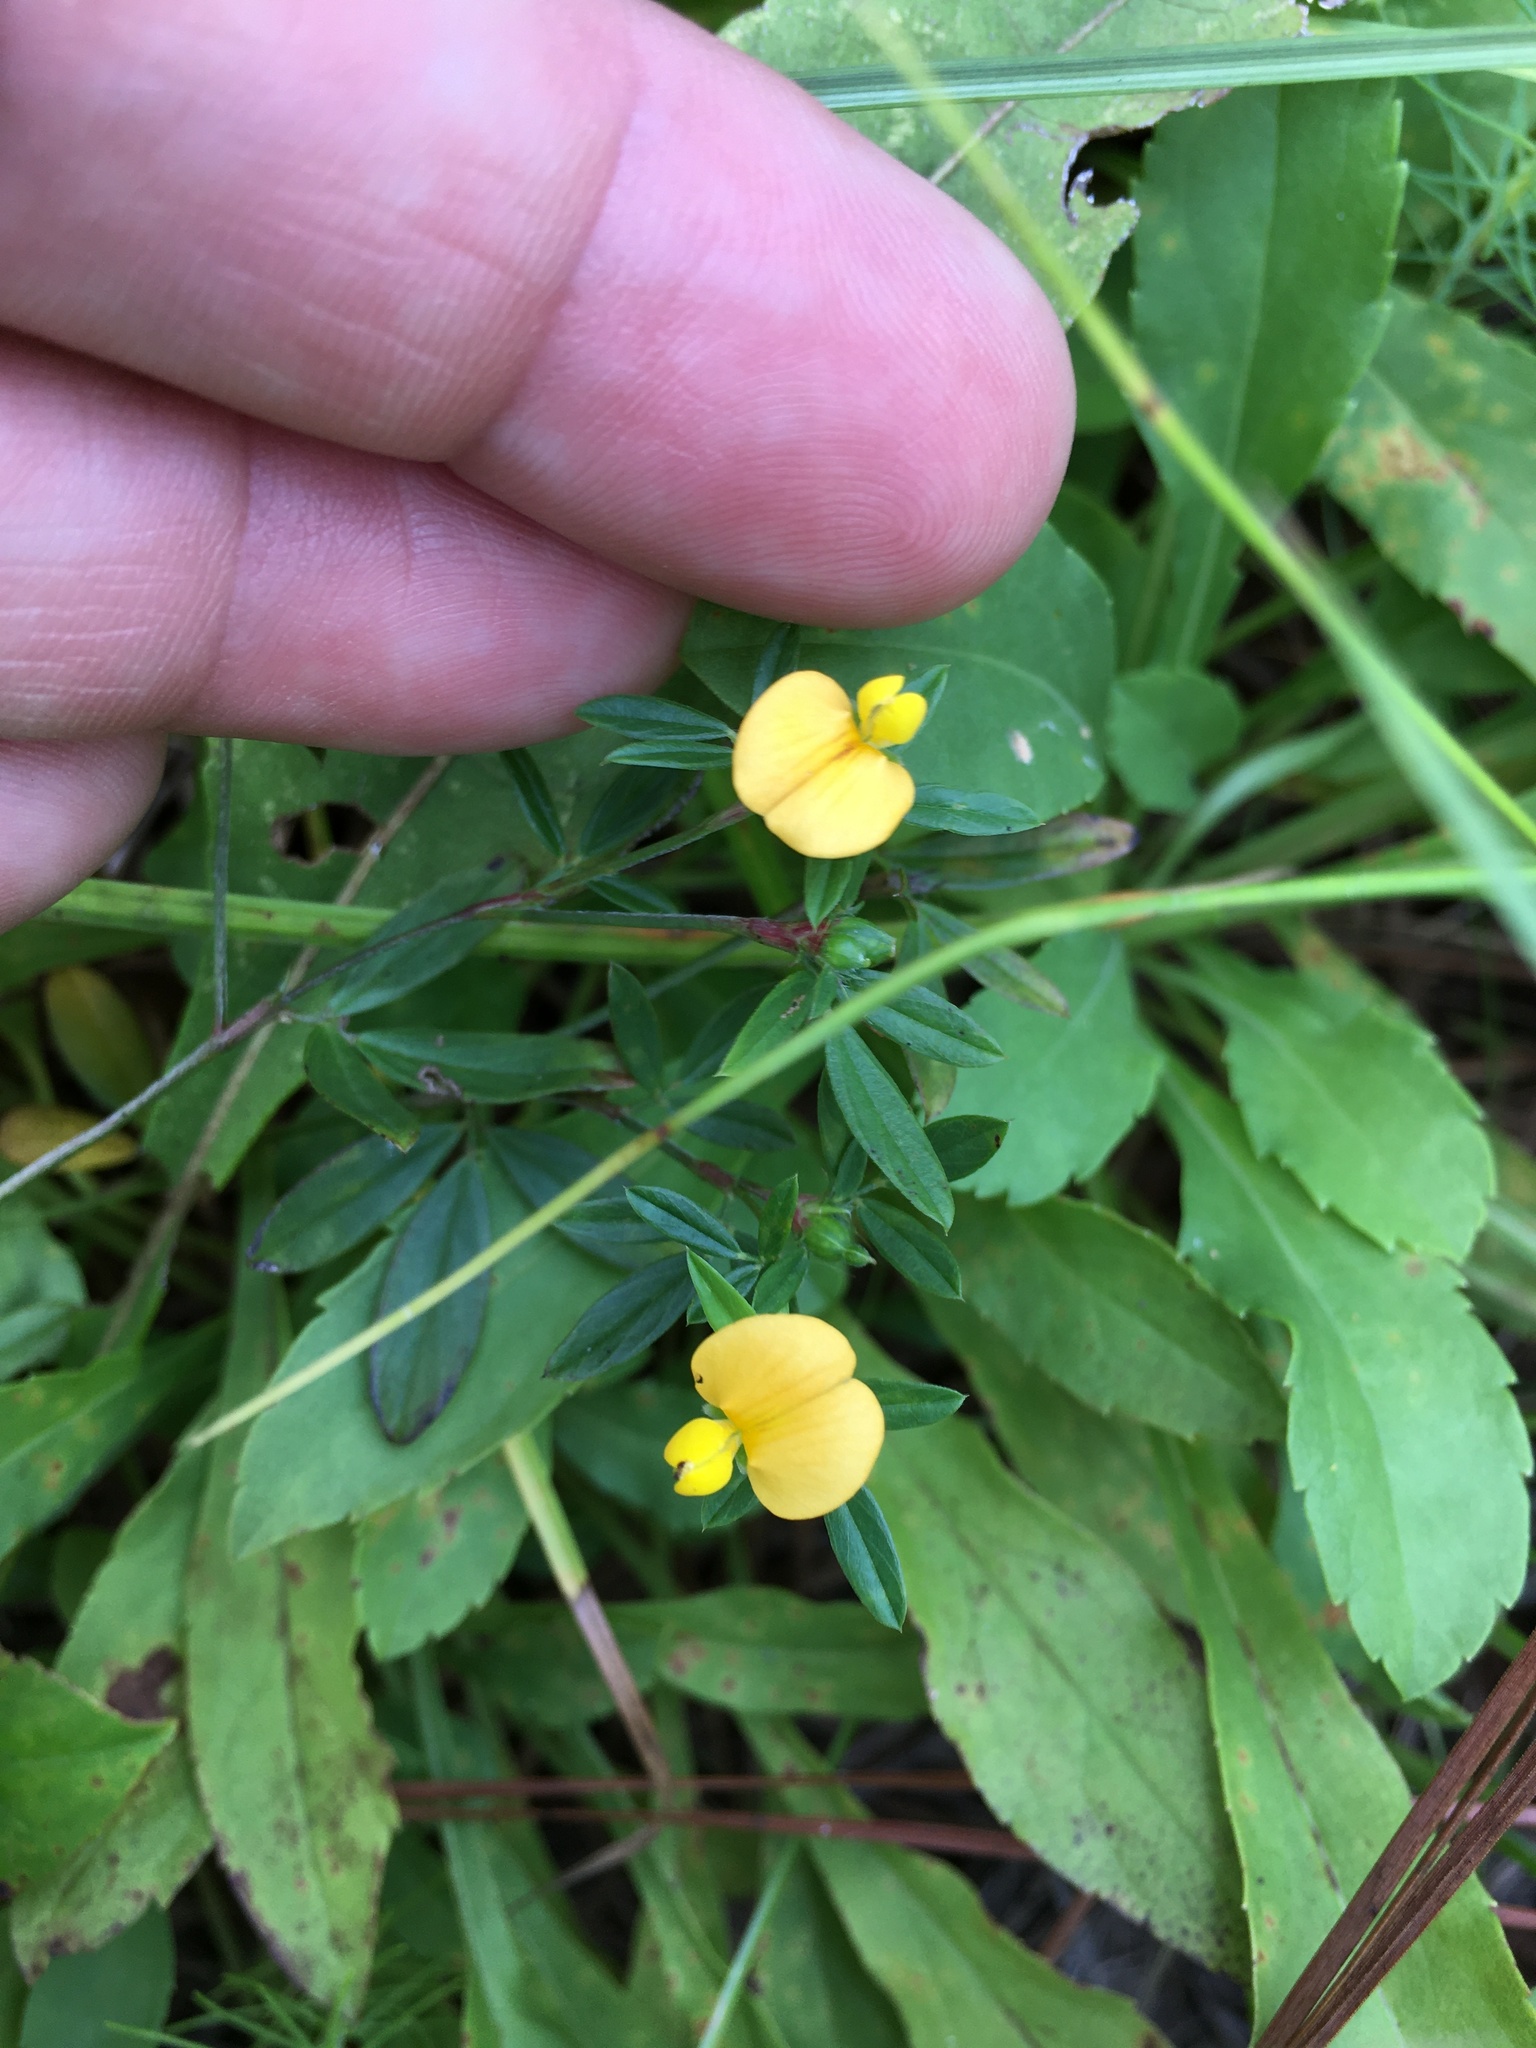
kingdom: Plantae
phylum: Tracheophyta
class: Magnoliopsida
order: Fabales
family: Fabaceae
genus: Stylosanthes
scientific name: Stylosanthes biflora
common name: Two-flower pencil-flower
